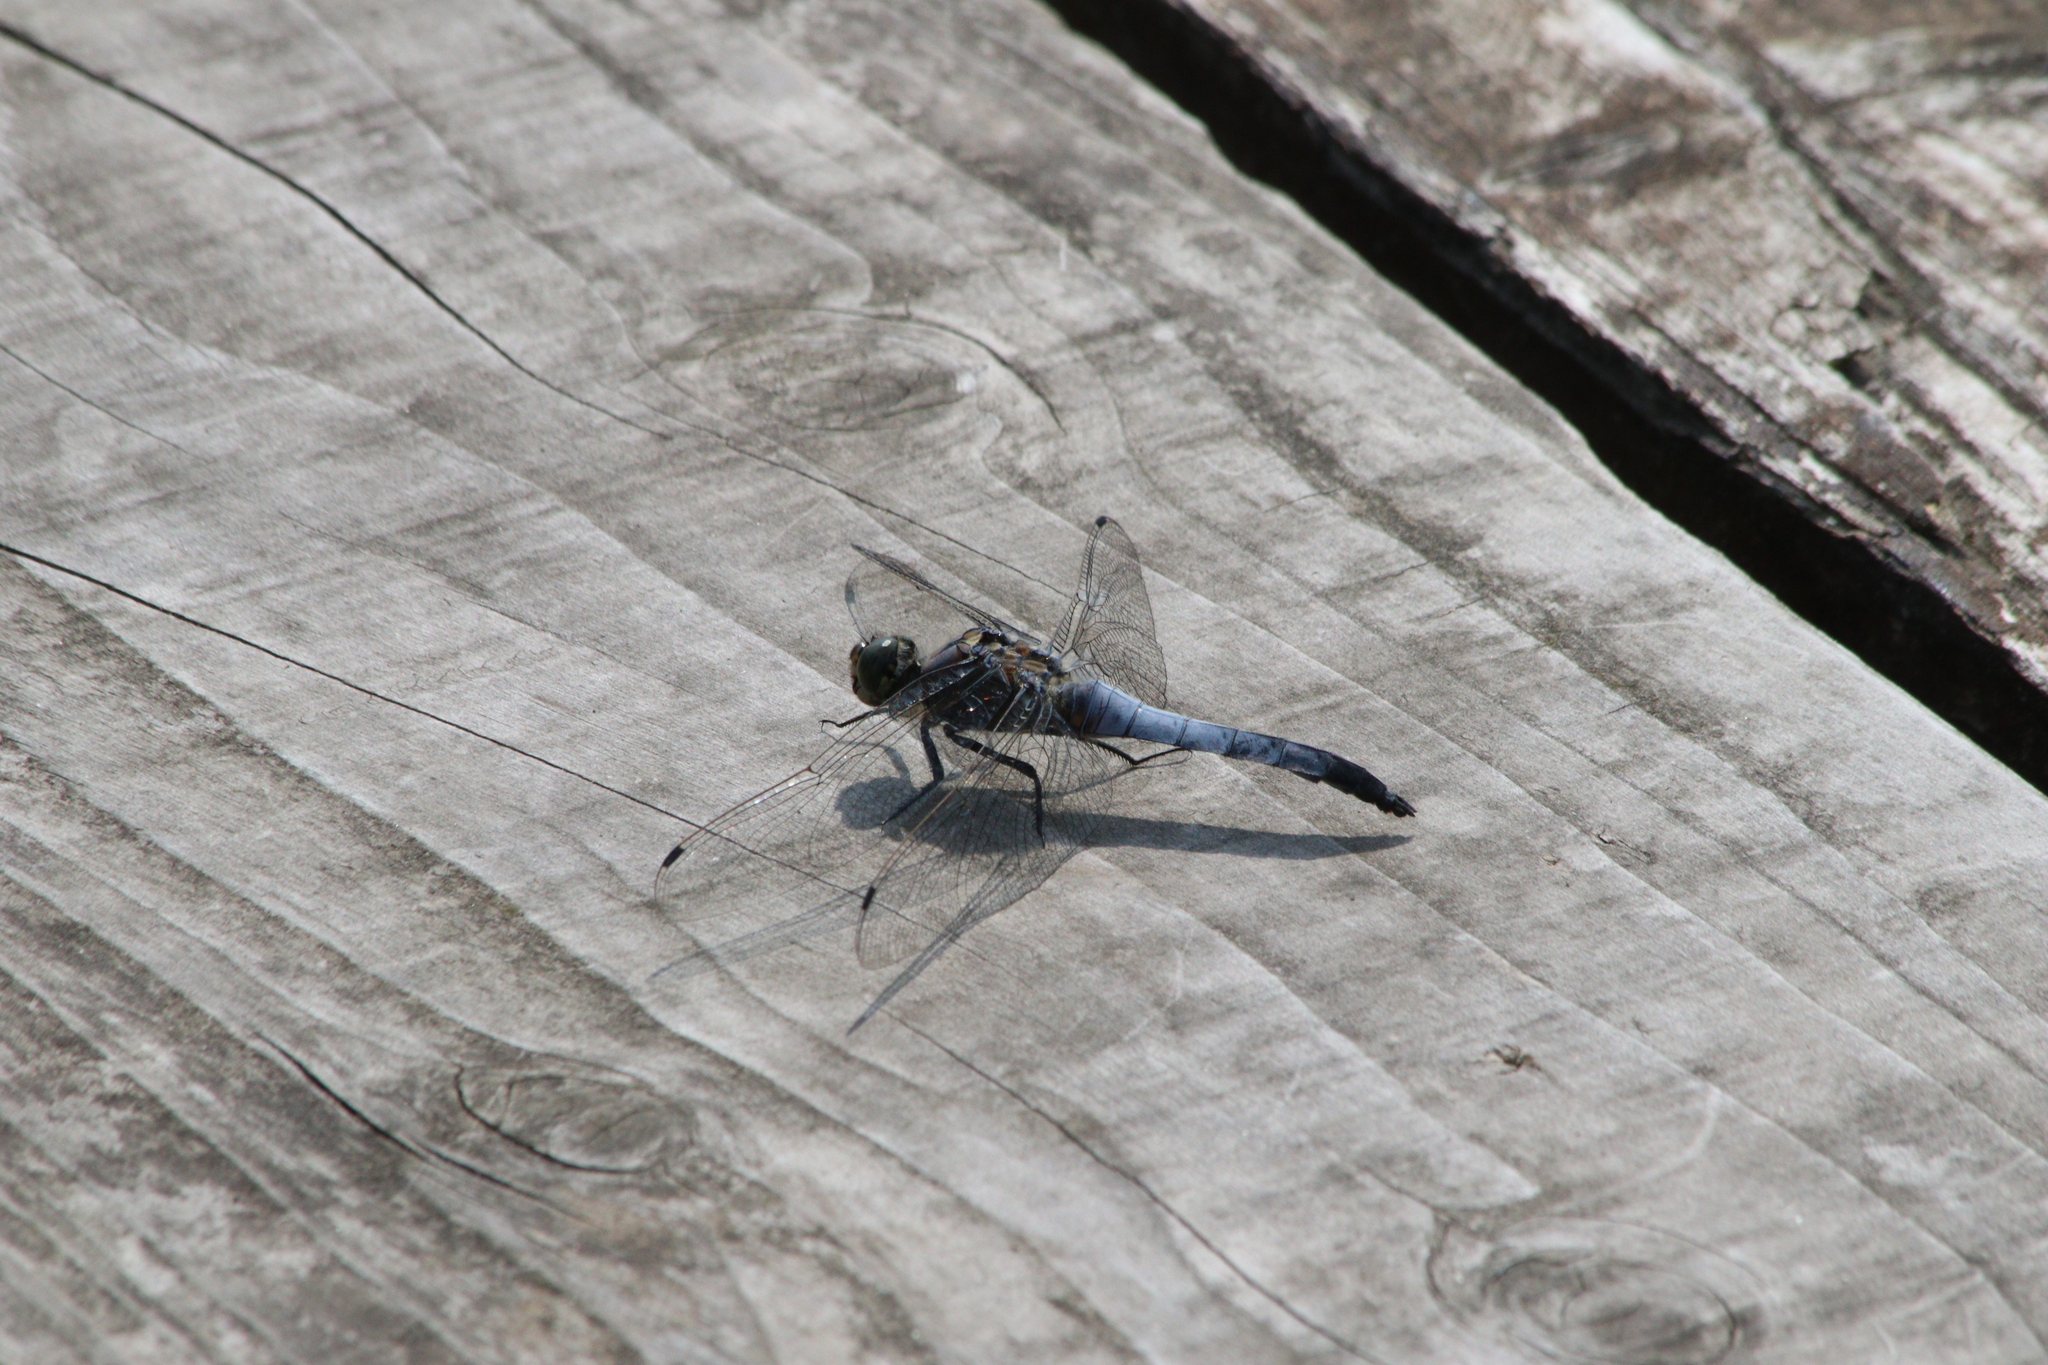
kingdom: Animalia
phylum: Arthropoda
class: Insecta
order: Odonata
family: Libellulidae
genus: Orthetrum
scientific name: Orthetrum cancellatum
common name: Black-tailed skimmer
